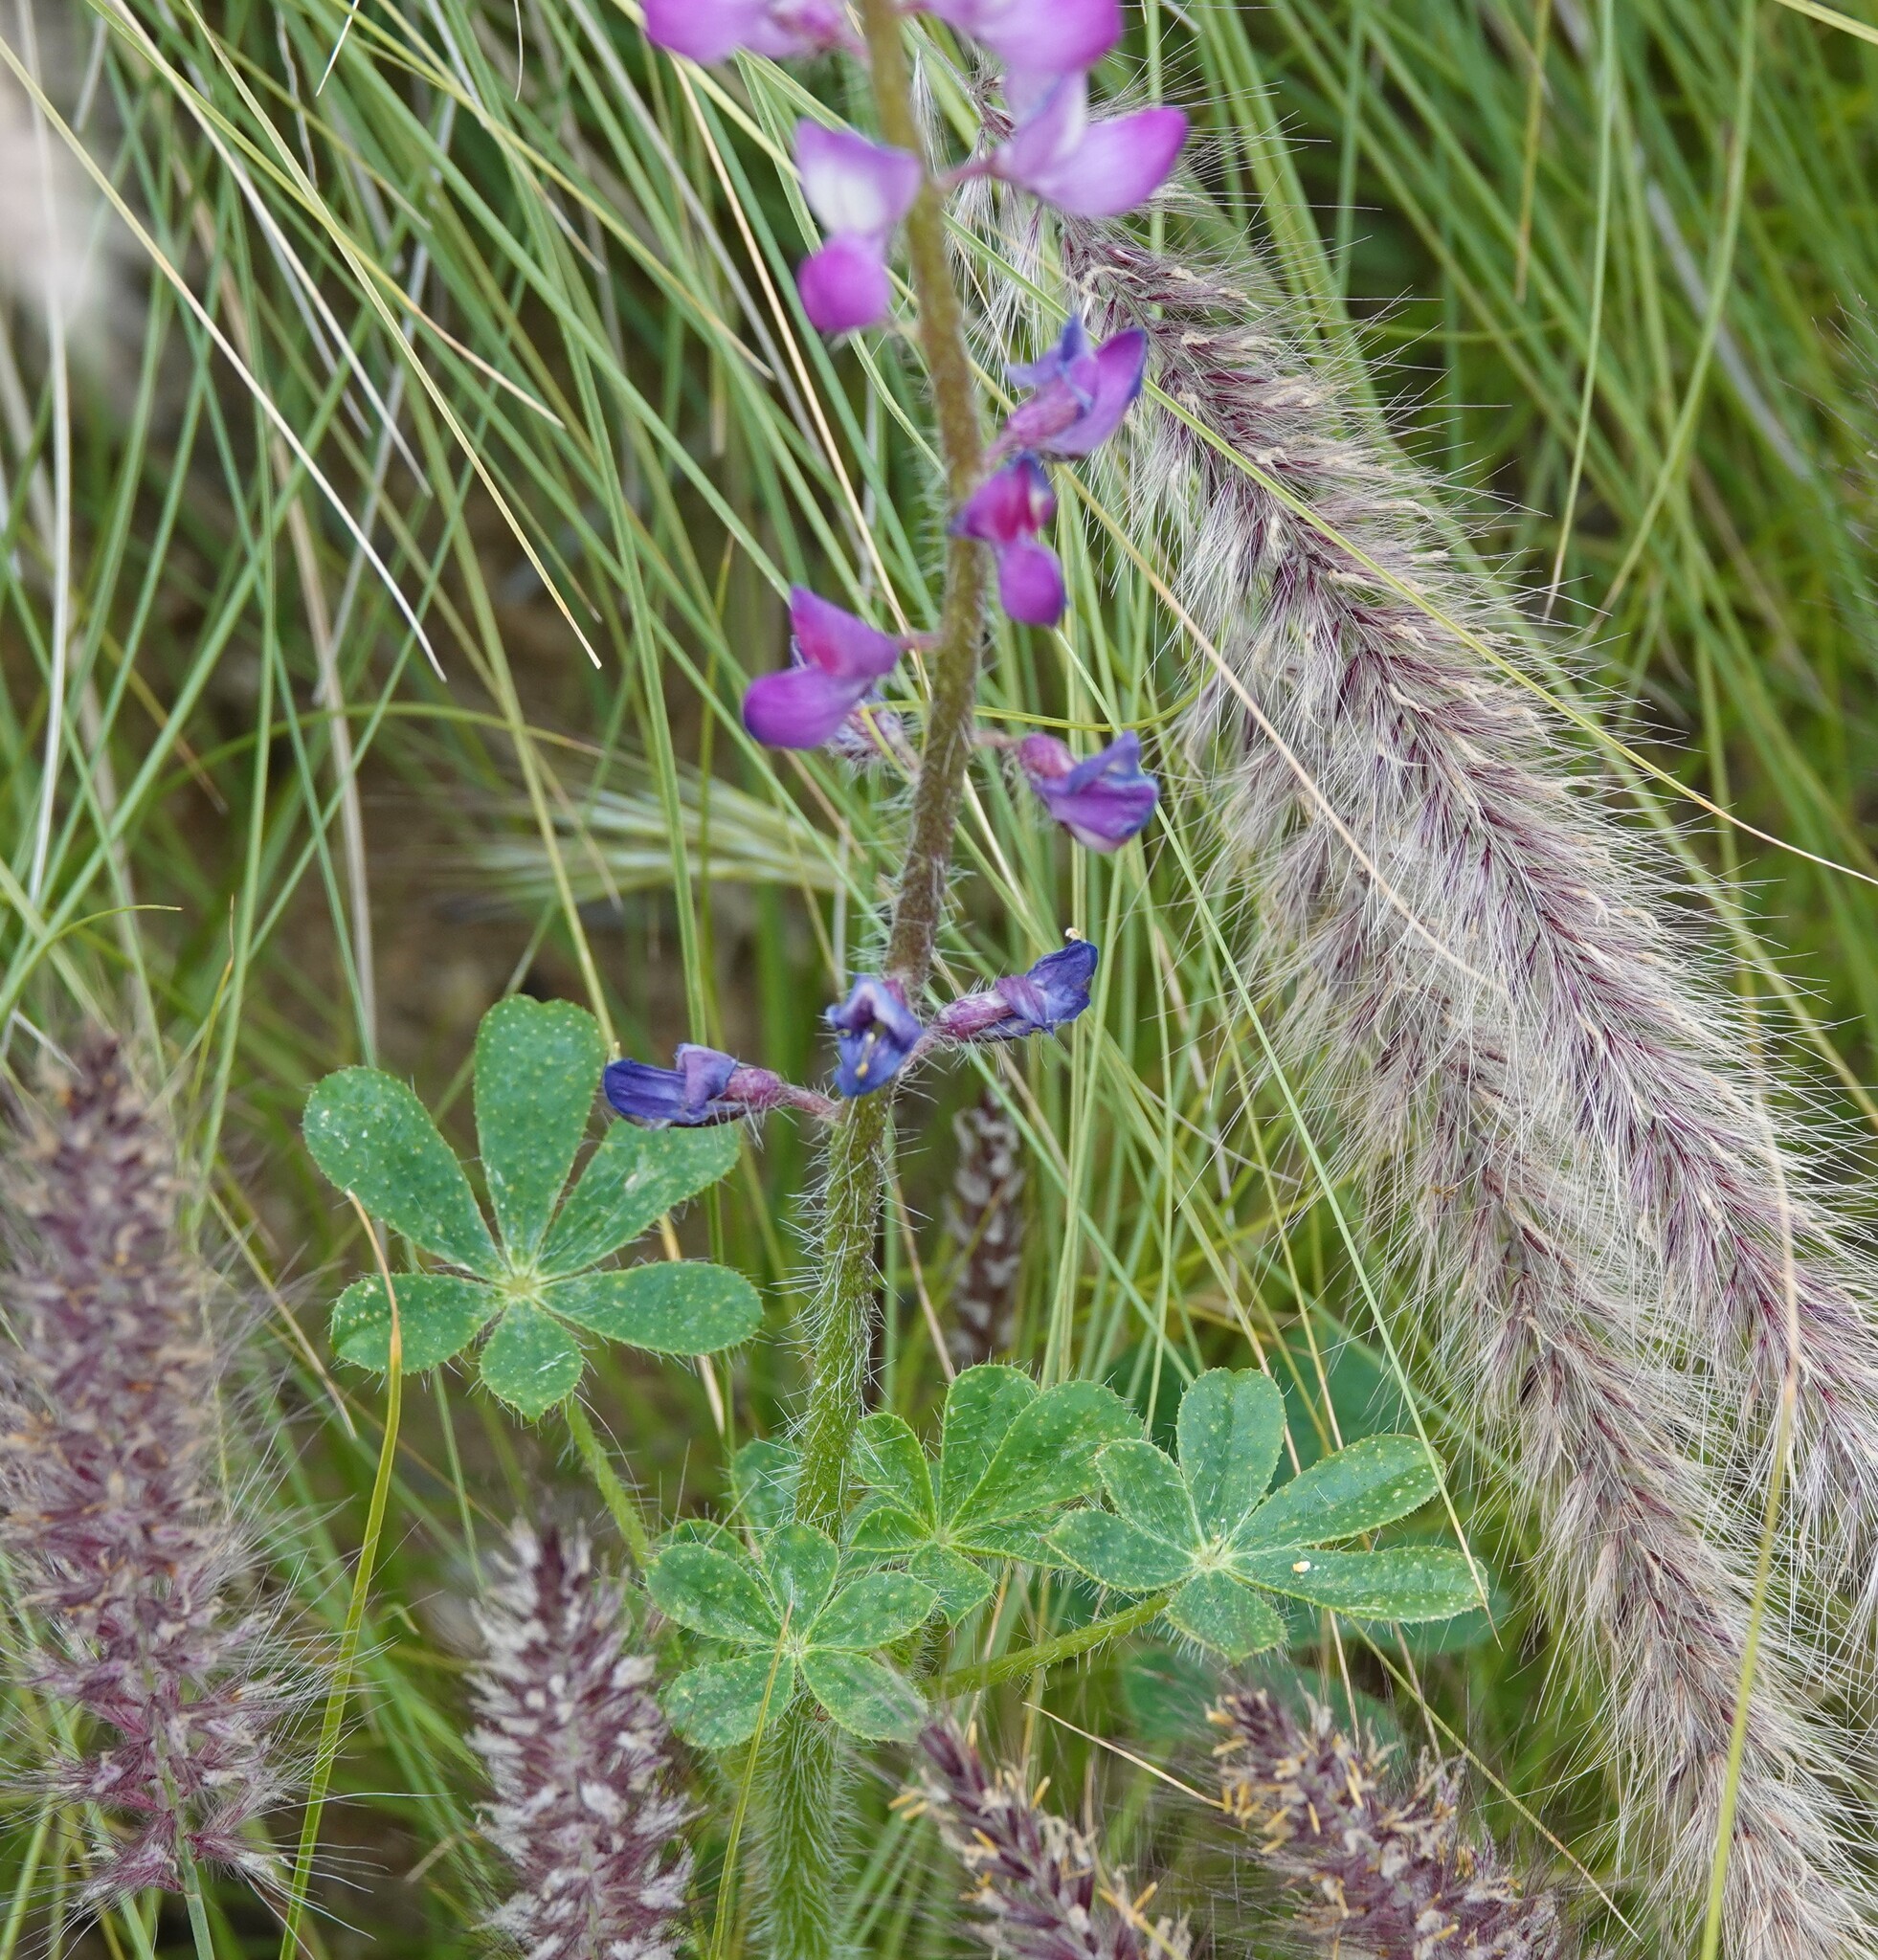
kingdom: Plantae
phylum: Tracheophyta
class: Magnoliopsida
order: Fabales
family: Fabaceae
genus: Lupinus
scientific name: Lupinus hirsutissimus
